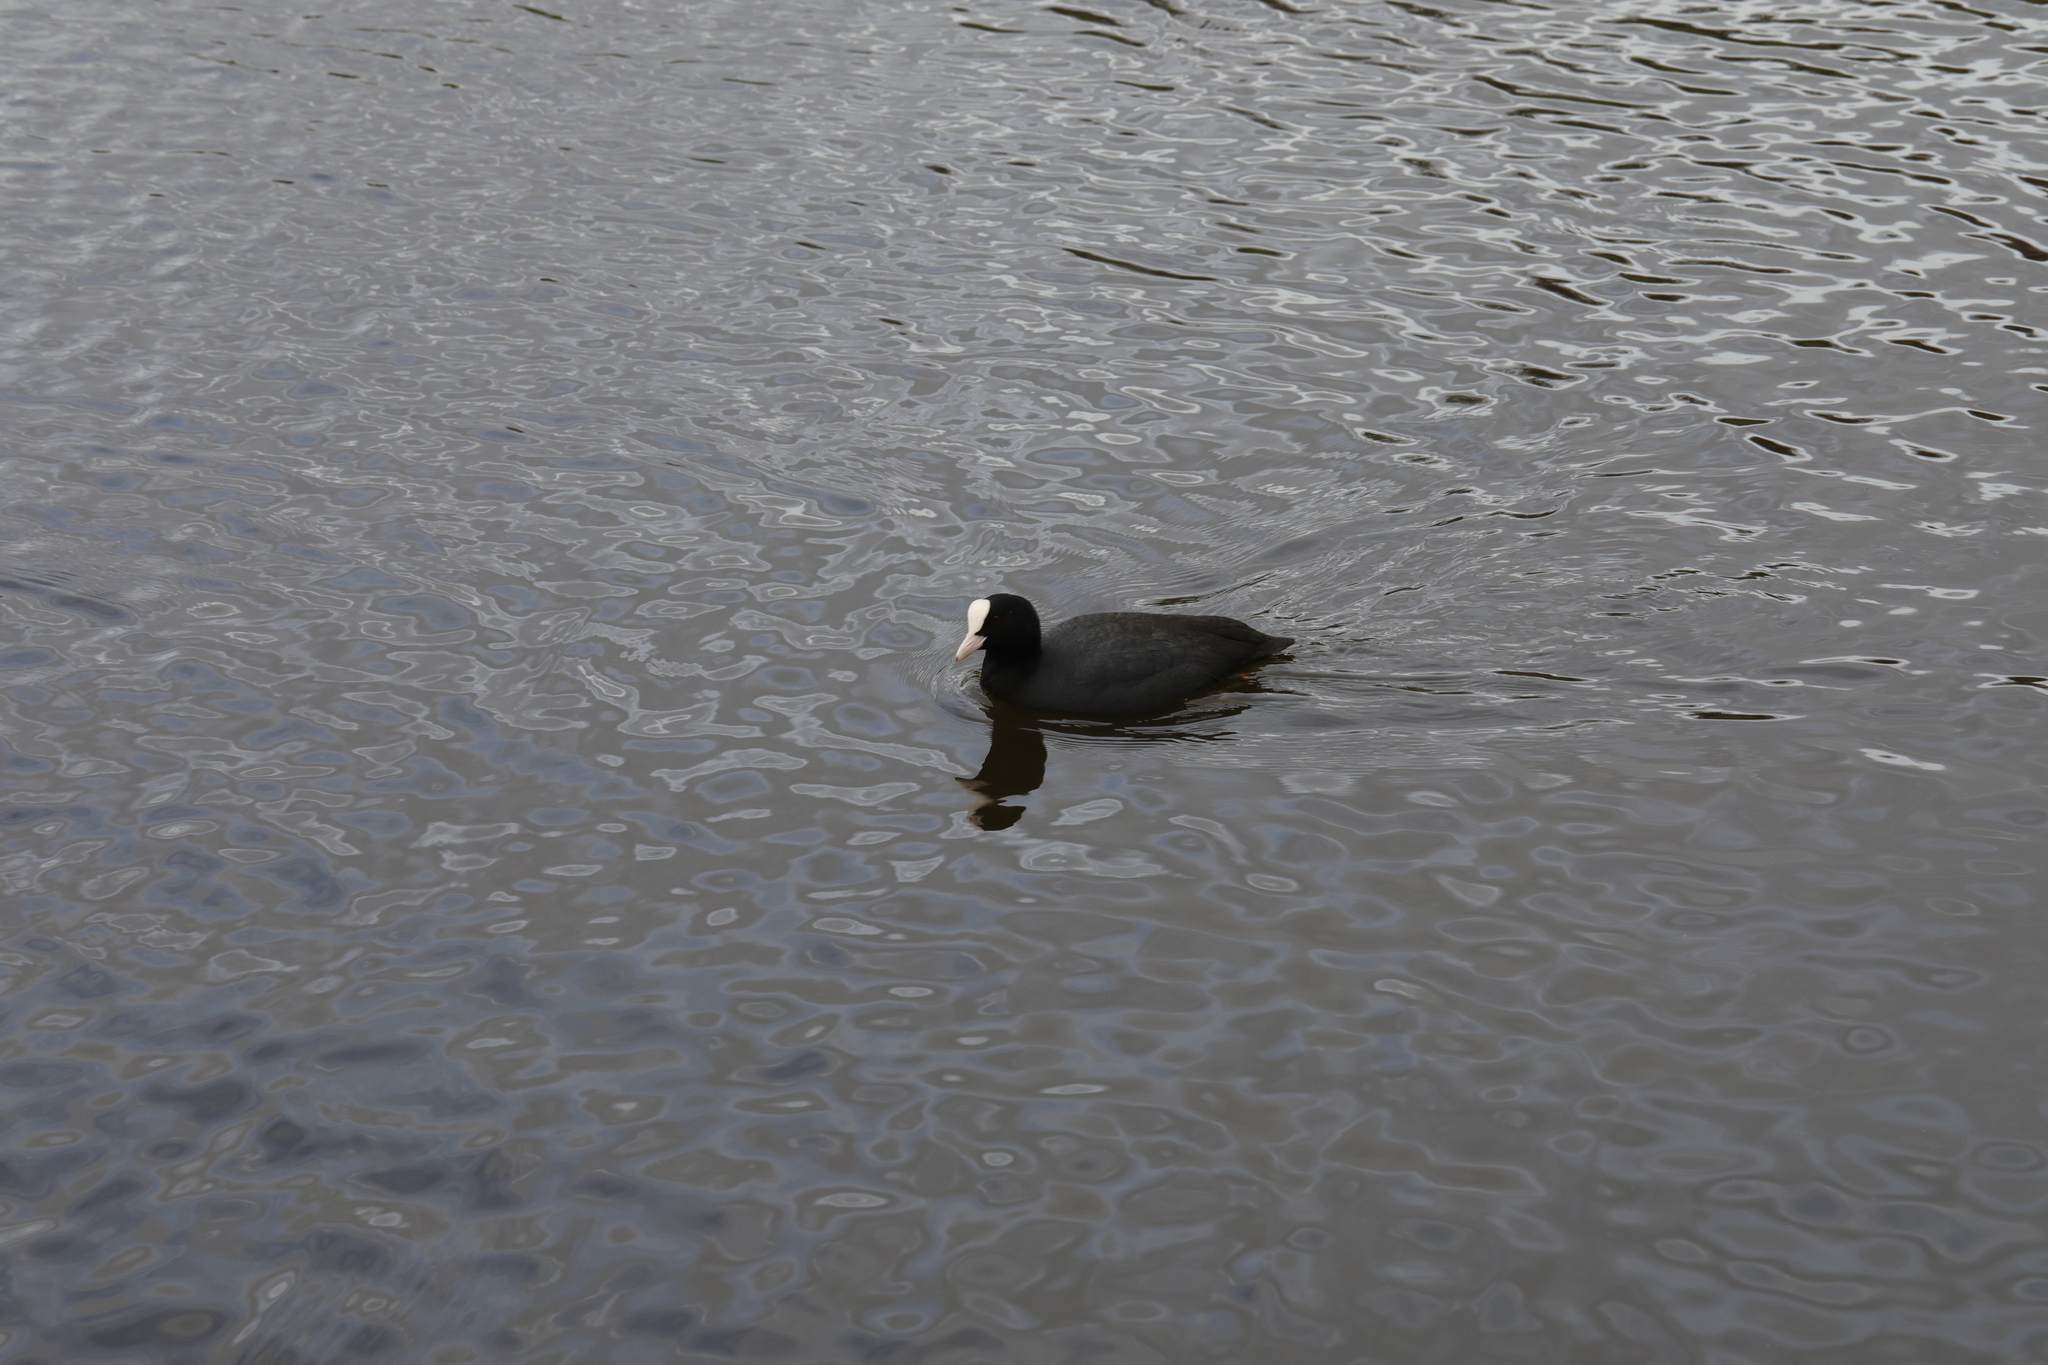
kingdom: Animalia
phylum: Chordata
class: Aves
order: Gruiformes
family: Rallidae
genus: Fulica
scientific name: Fulica atra
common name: Eurasian coot
